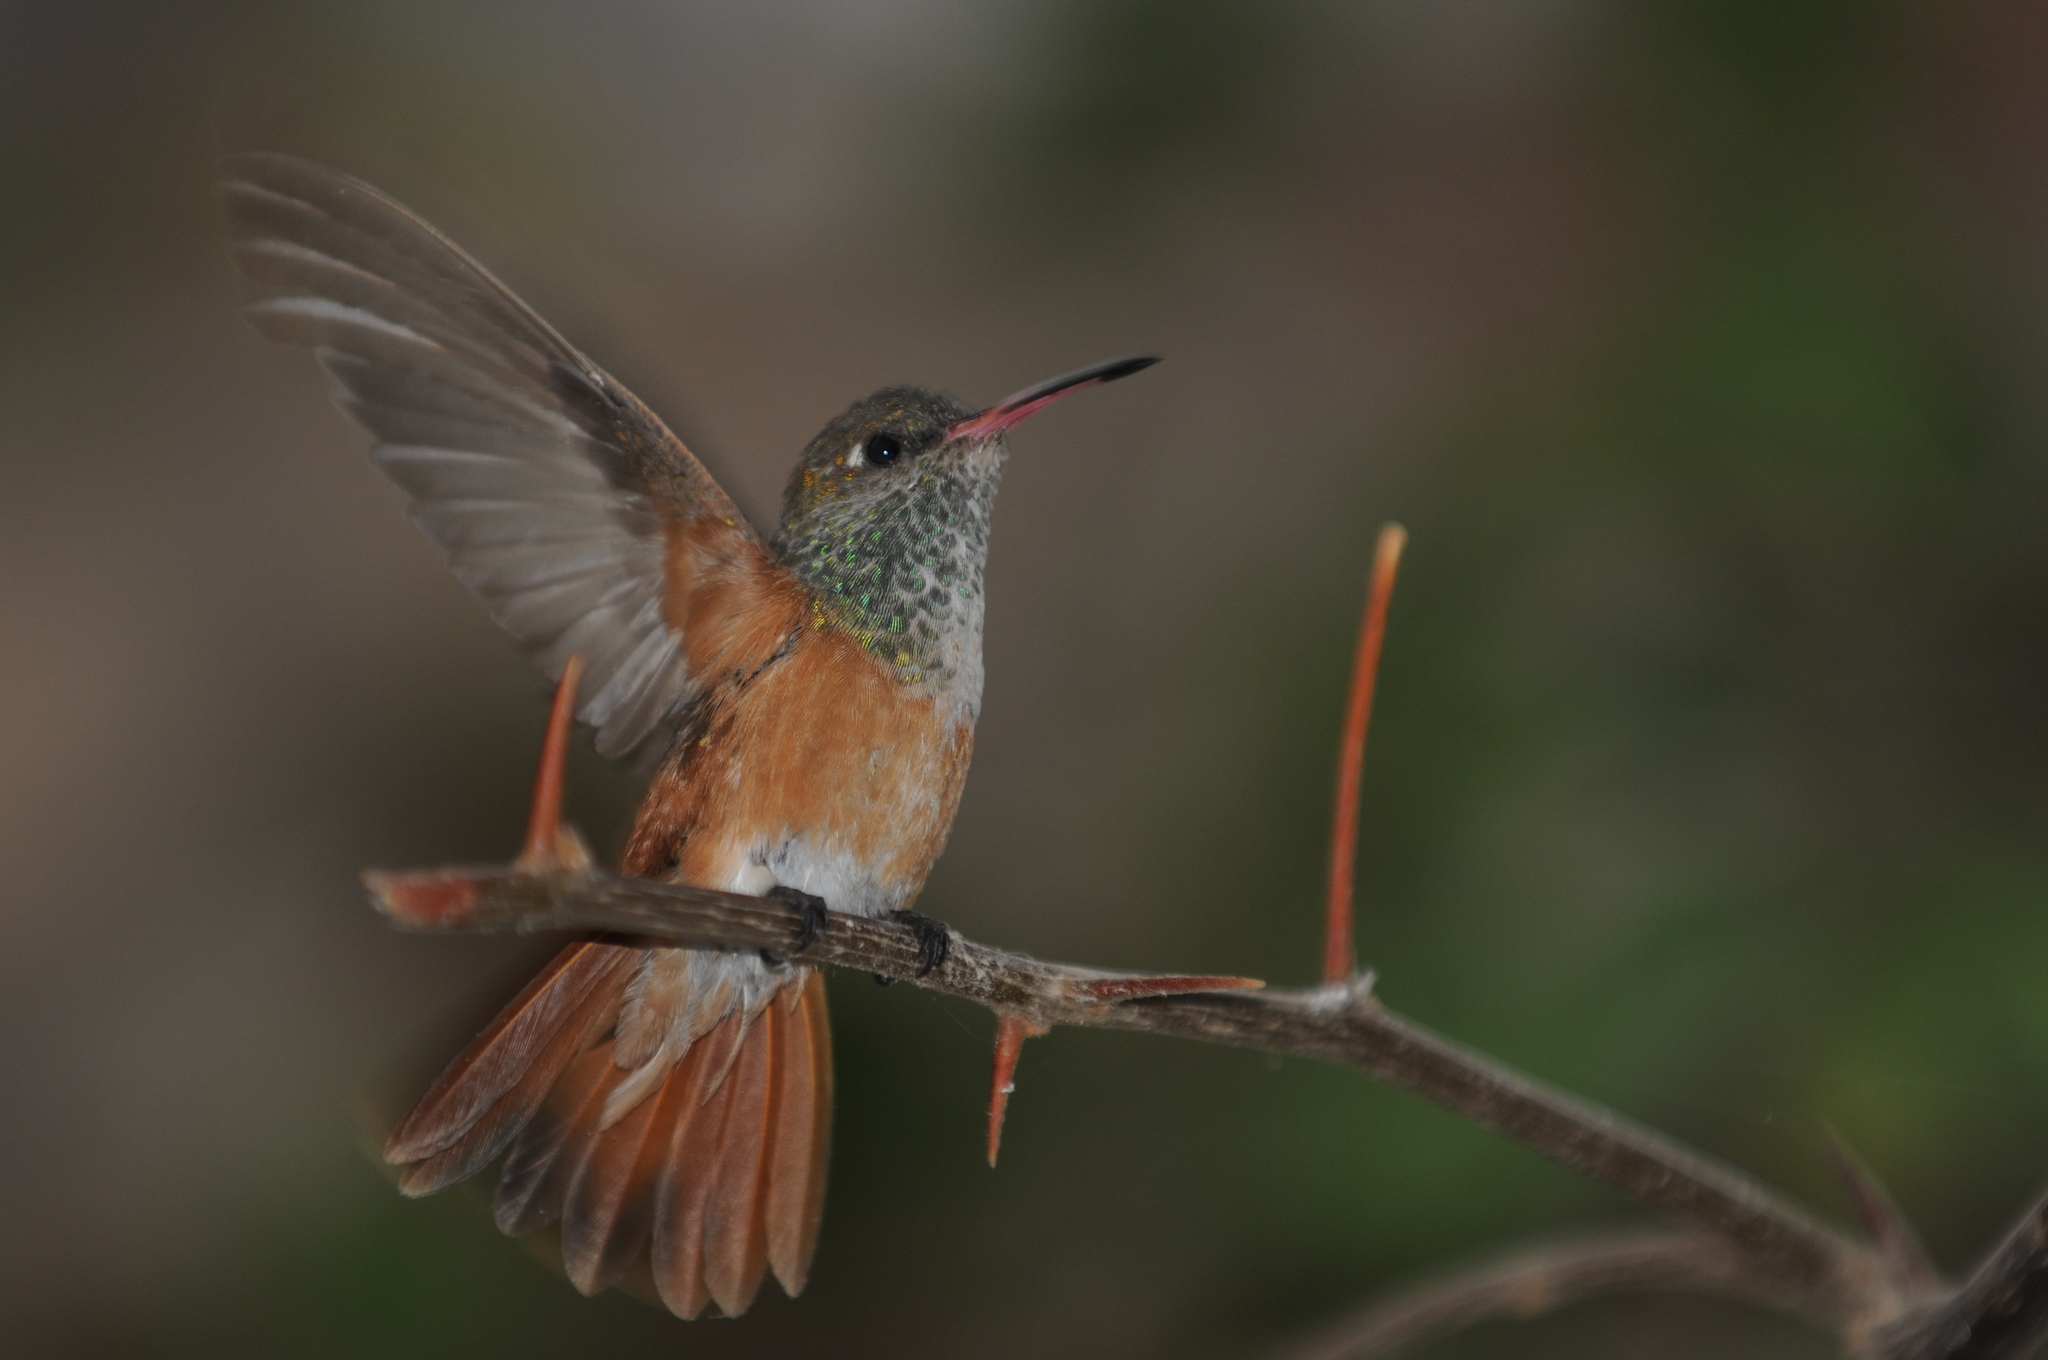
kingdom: Animalia
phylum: Chordata
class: Aves
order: Apodiformes
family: Trochilidae
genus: Amazilis
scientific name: Amazilis amazilia
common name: Amazilia hummingbird
